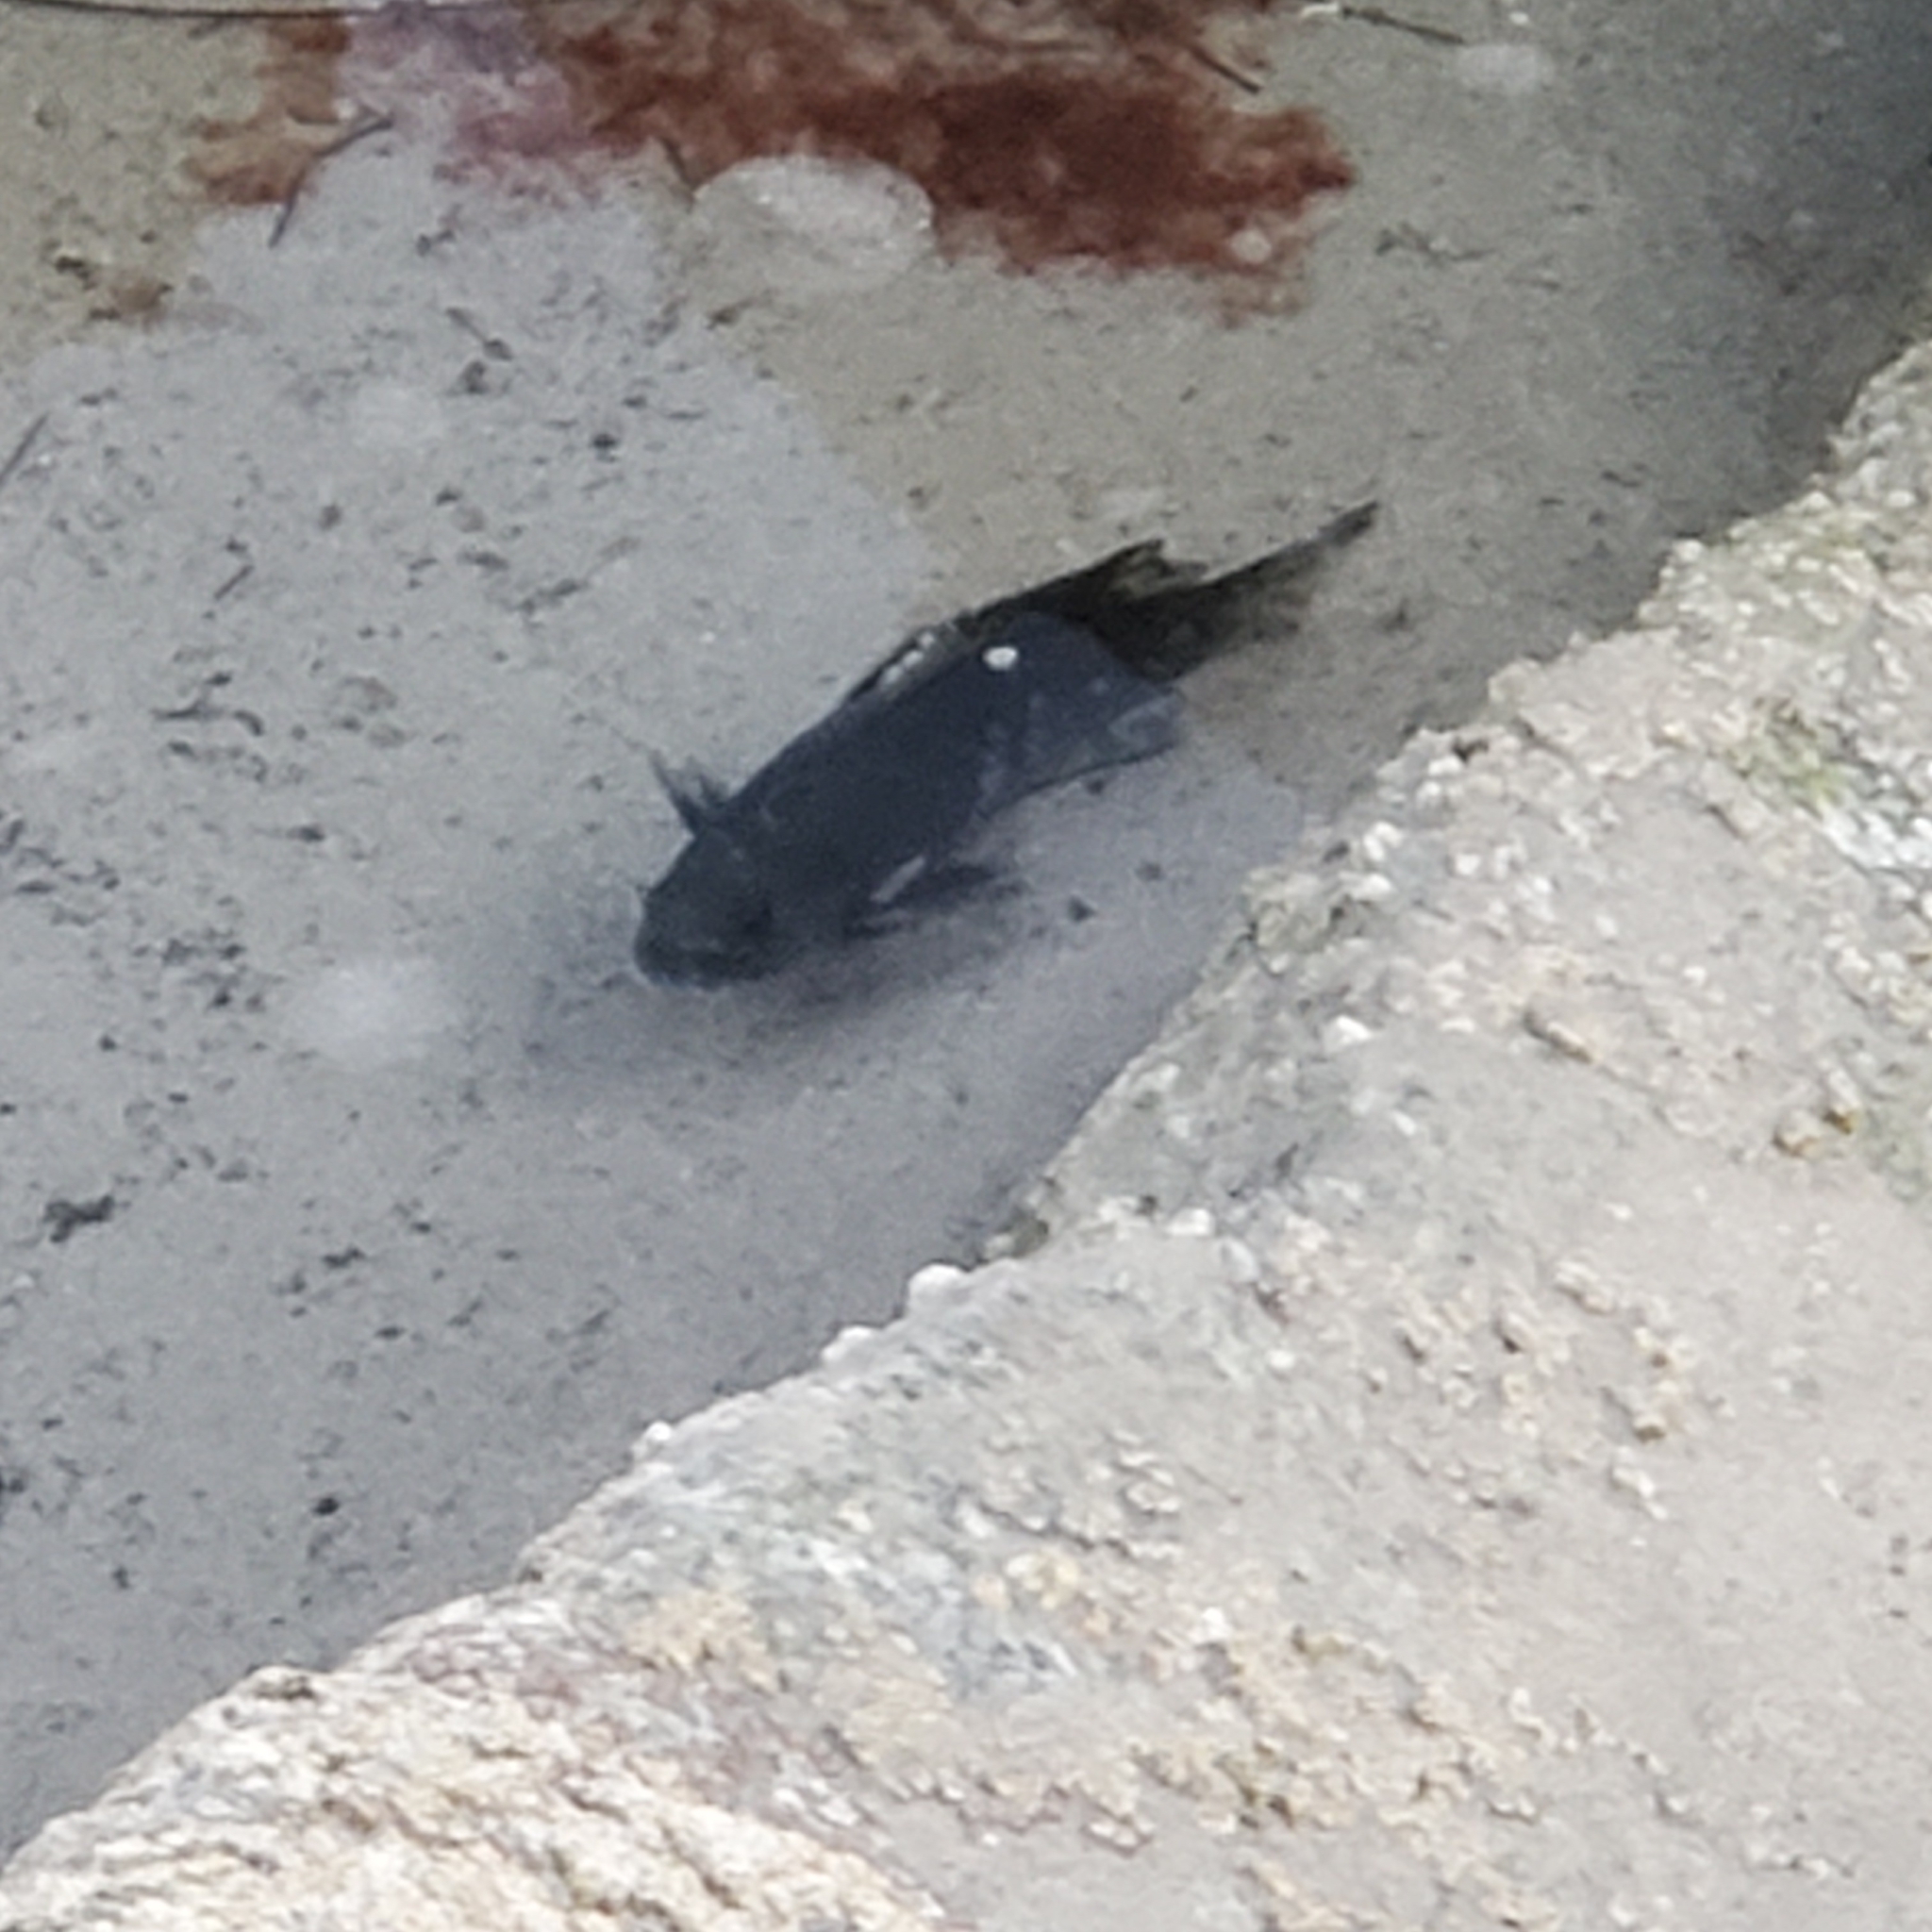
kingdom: Animalia
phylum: Chordata
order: Perciformes
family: Kyphosidae
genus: Girella
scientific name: Girella nigricans
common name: Opaleye
